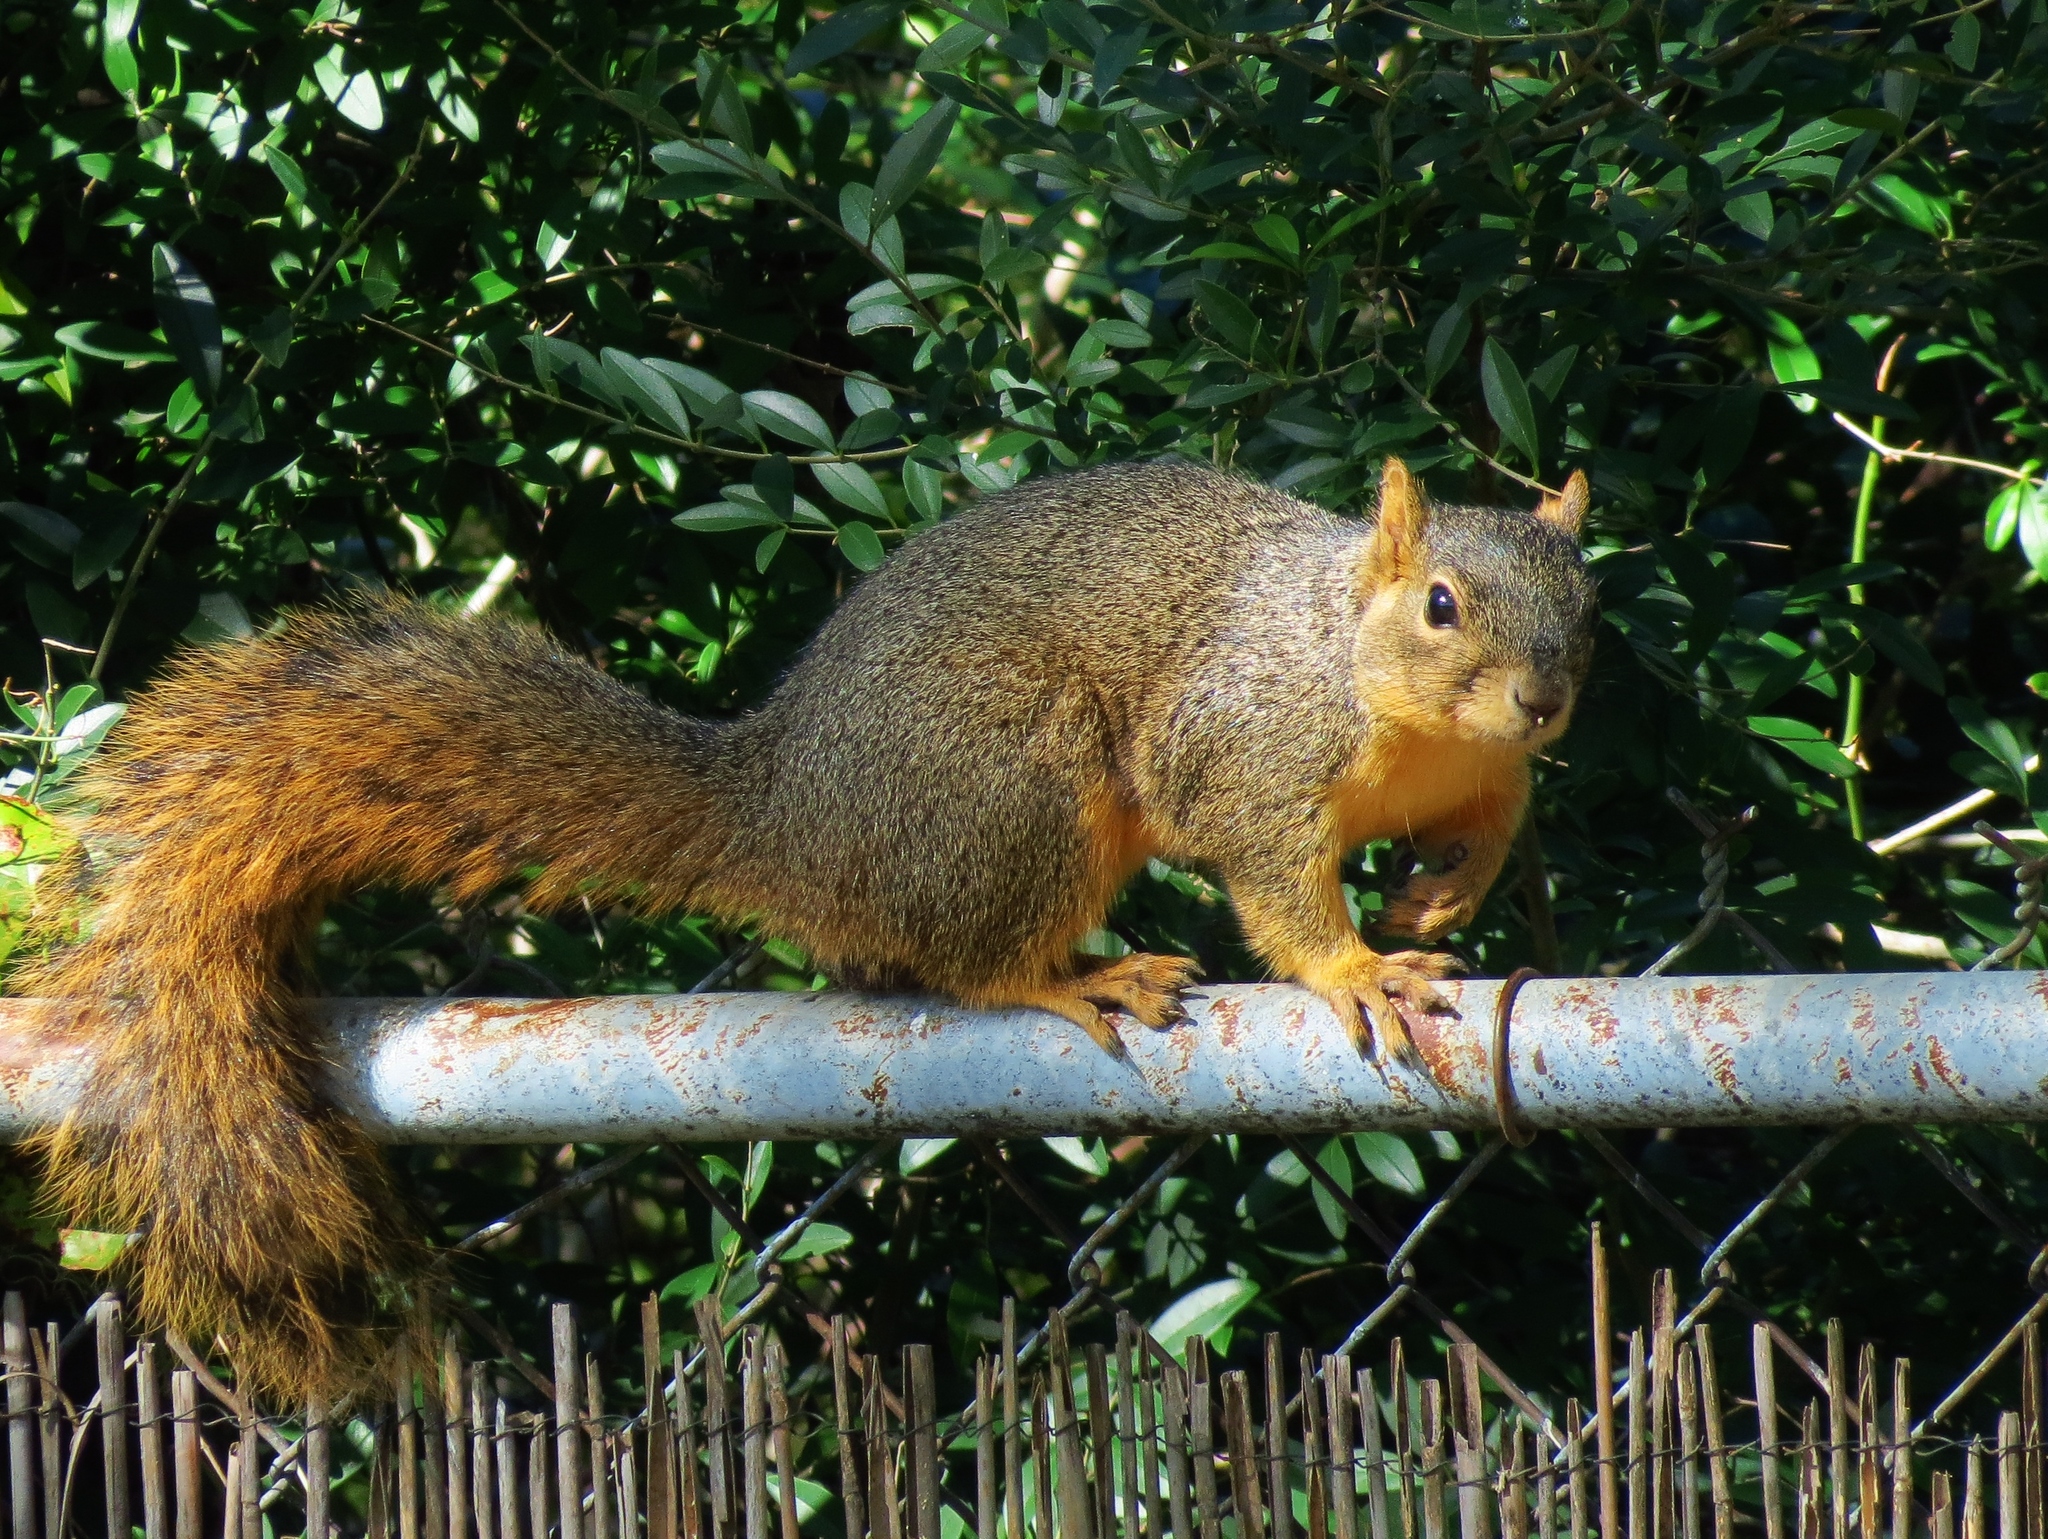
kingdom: Animalia
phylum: Chordata
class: Mammalia
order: Rodentia
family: Sciuridae
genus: Sciurus
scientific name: Sciurus niger
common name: Fox squirrel
